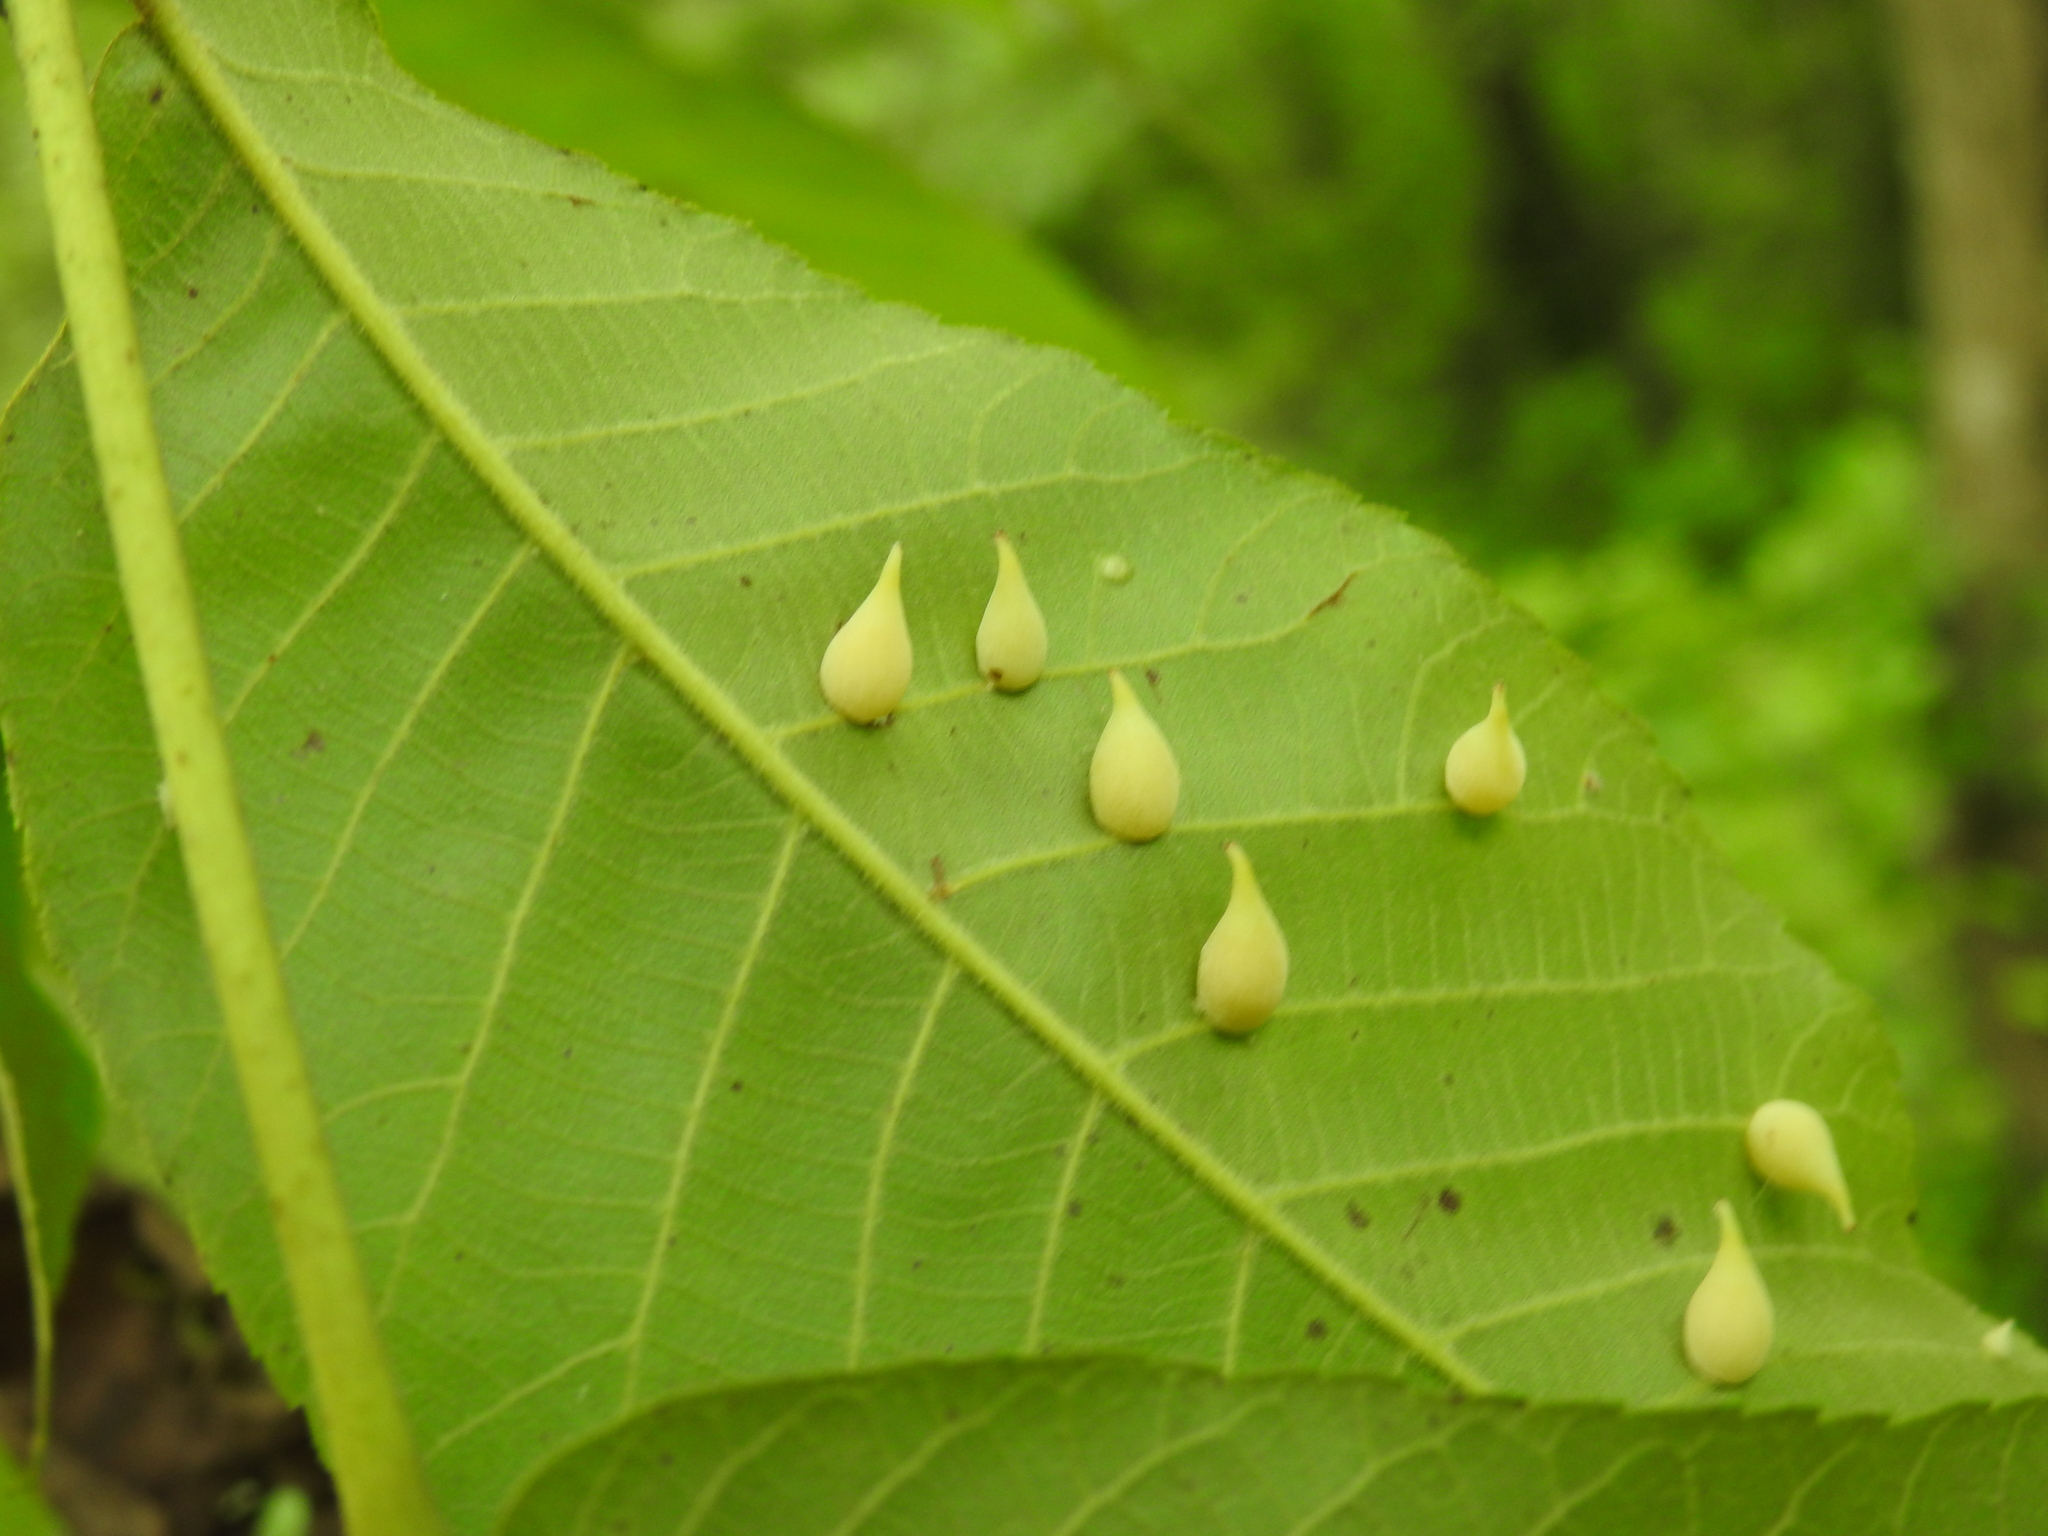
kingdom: Animalia
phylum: Arthropoda
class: Insecta
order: Diptera
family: Cecidomyiidae
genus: Caryomyia
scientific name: Caryomyia caryaecola
